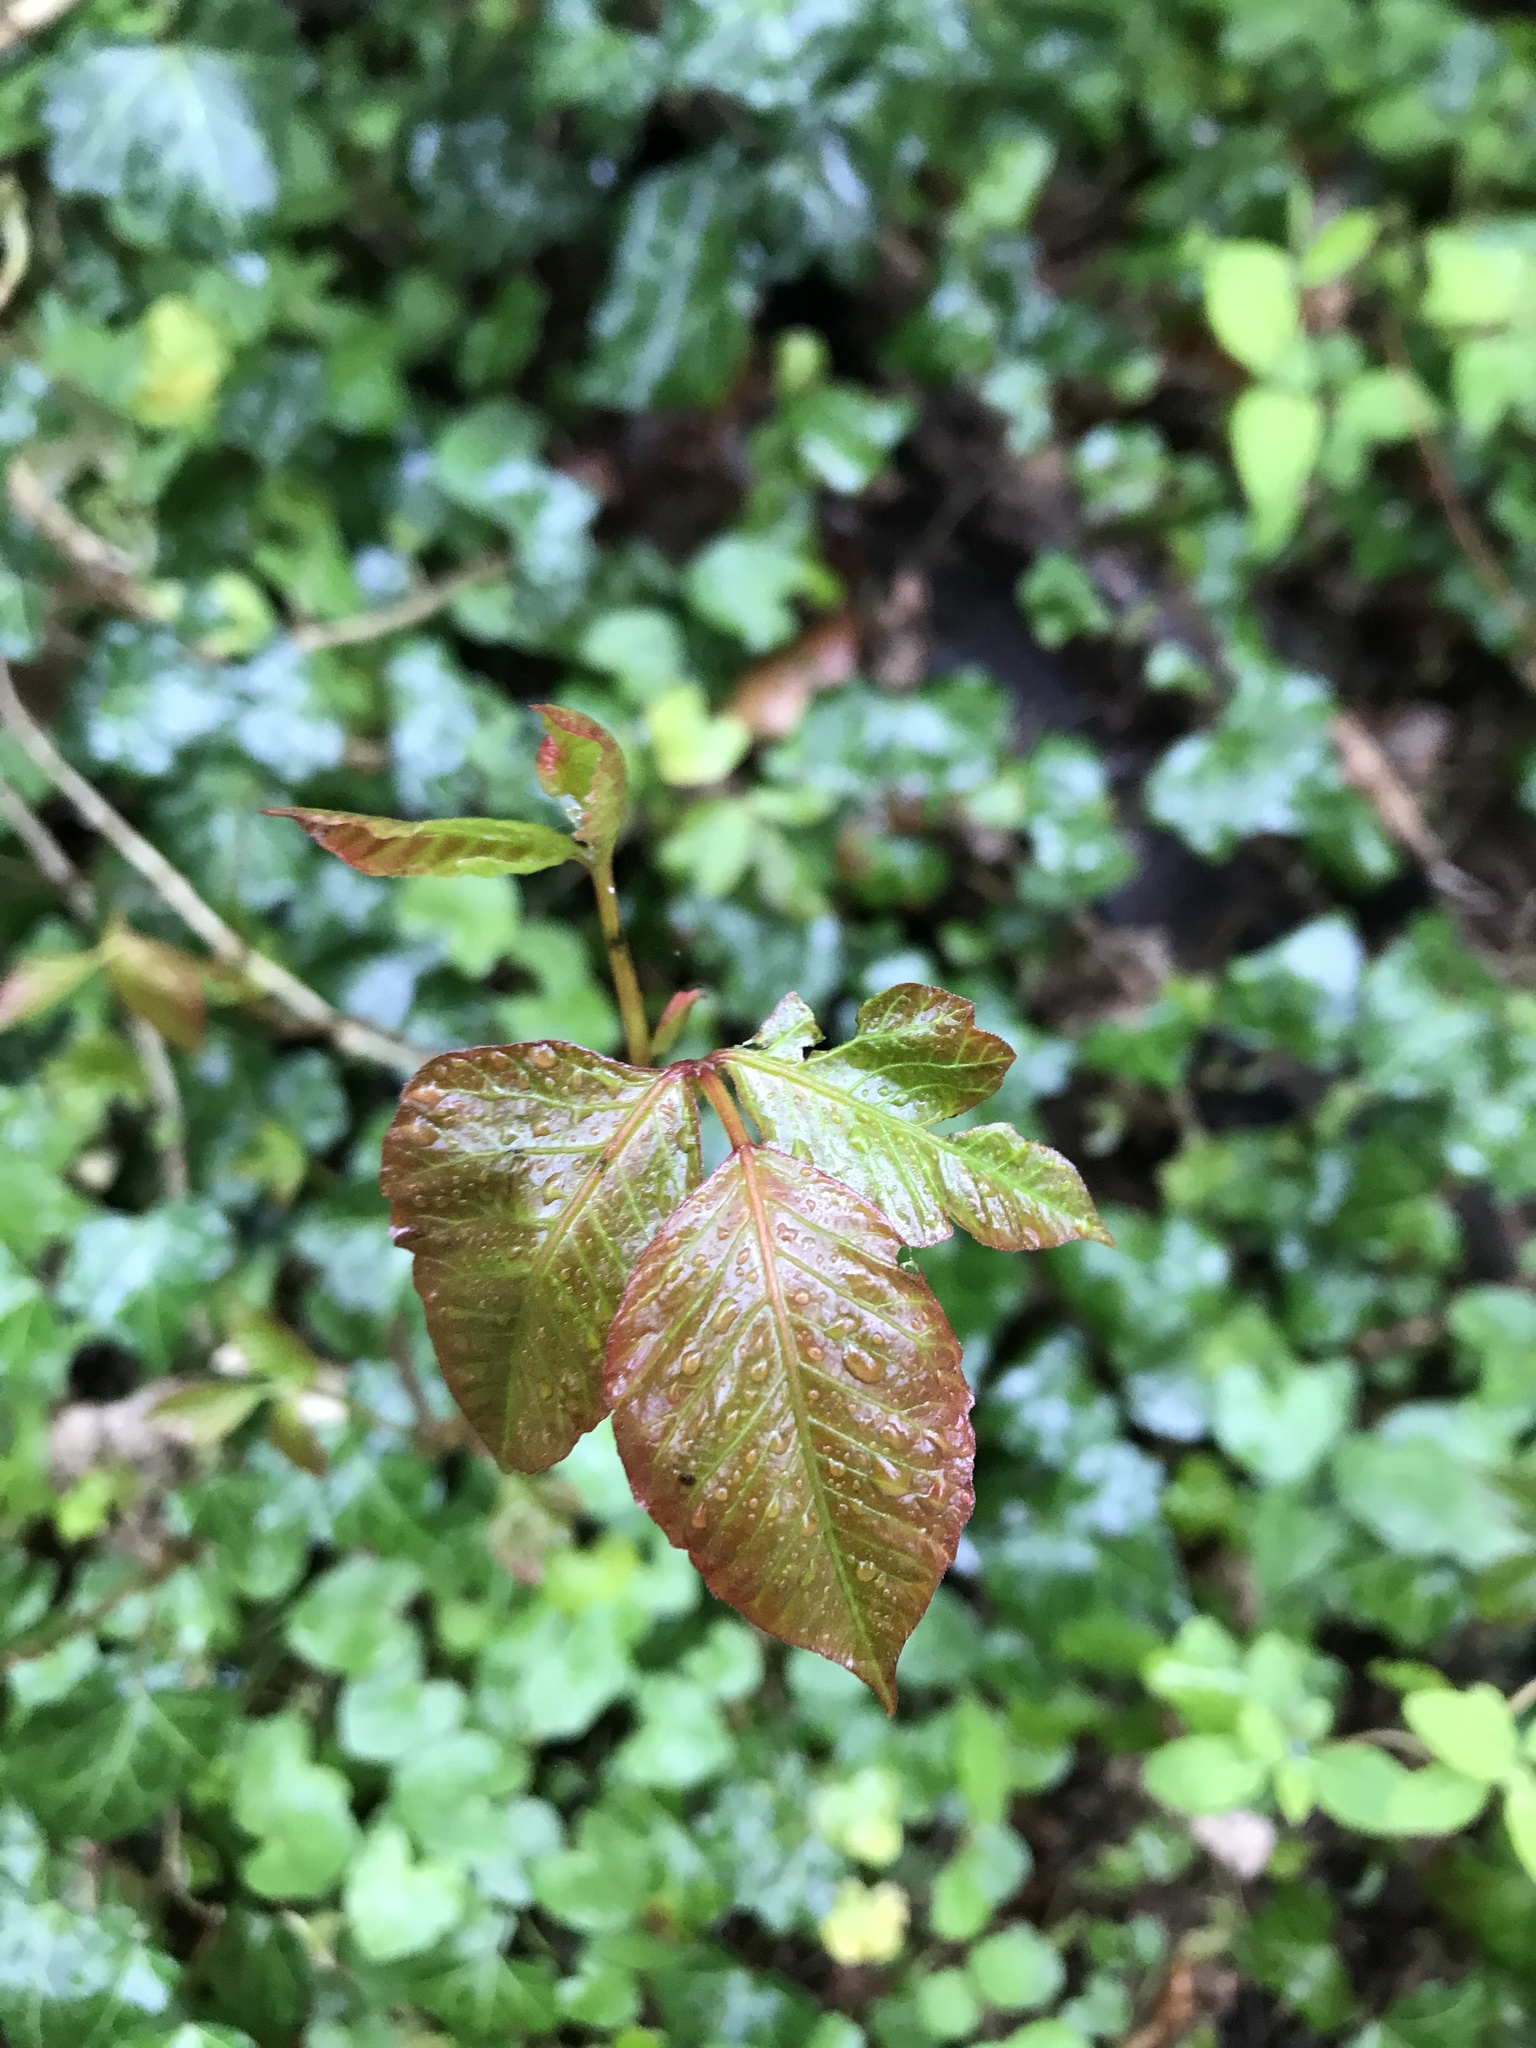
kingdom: Plantae
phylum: Tracheophyta
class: Magnoliopsida
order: Sapindales
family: Anacardiaceae
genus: Toxicodendron
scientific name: Toxicodendron radicans
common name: Poison ivy
